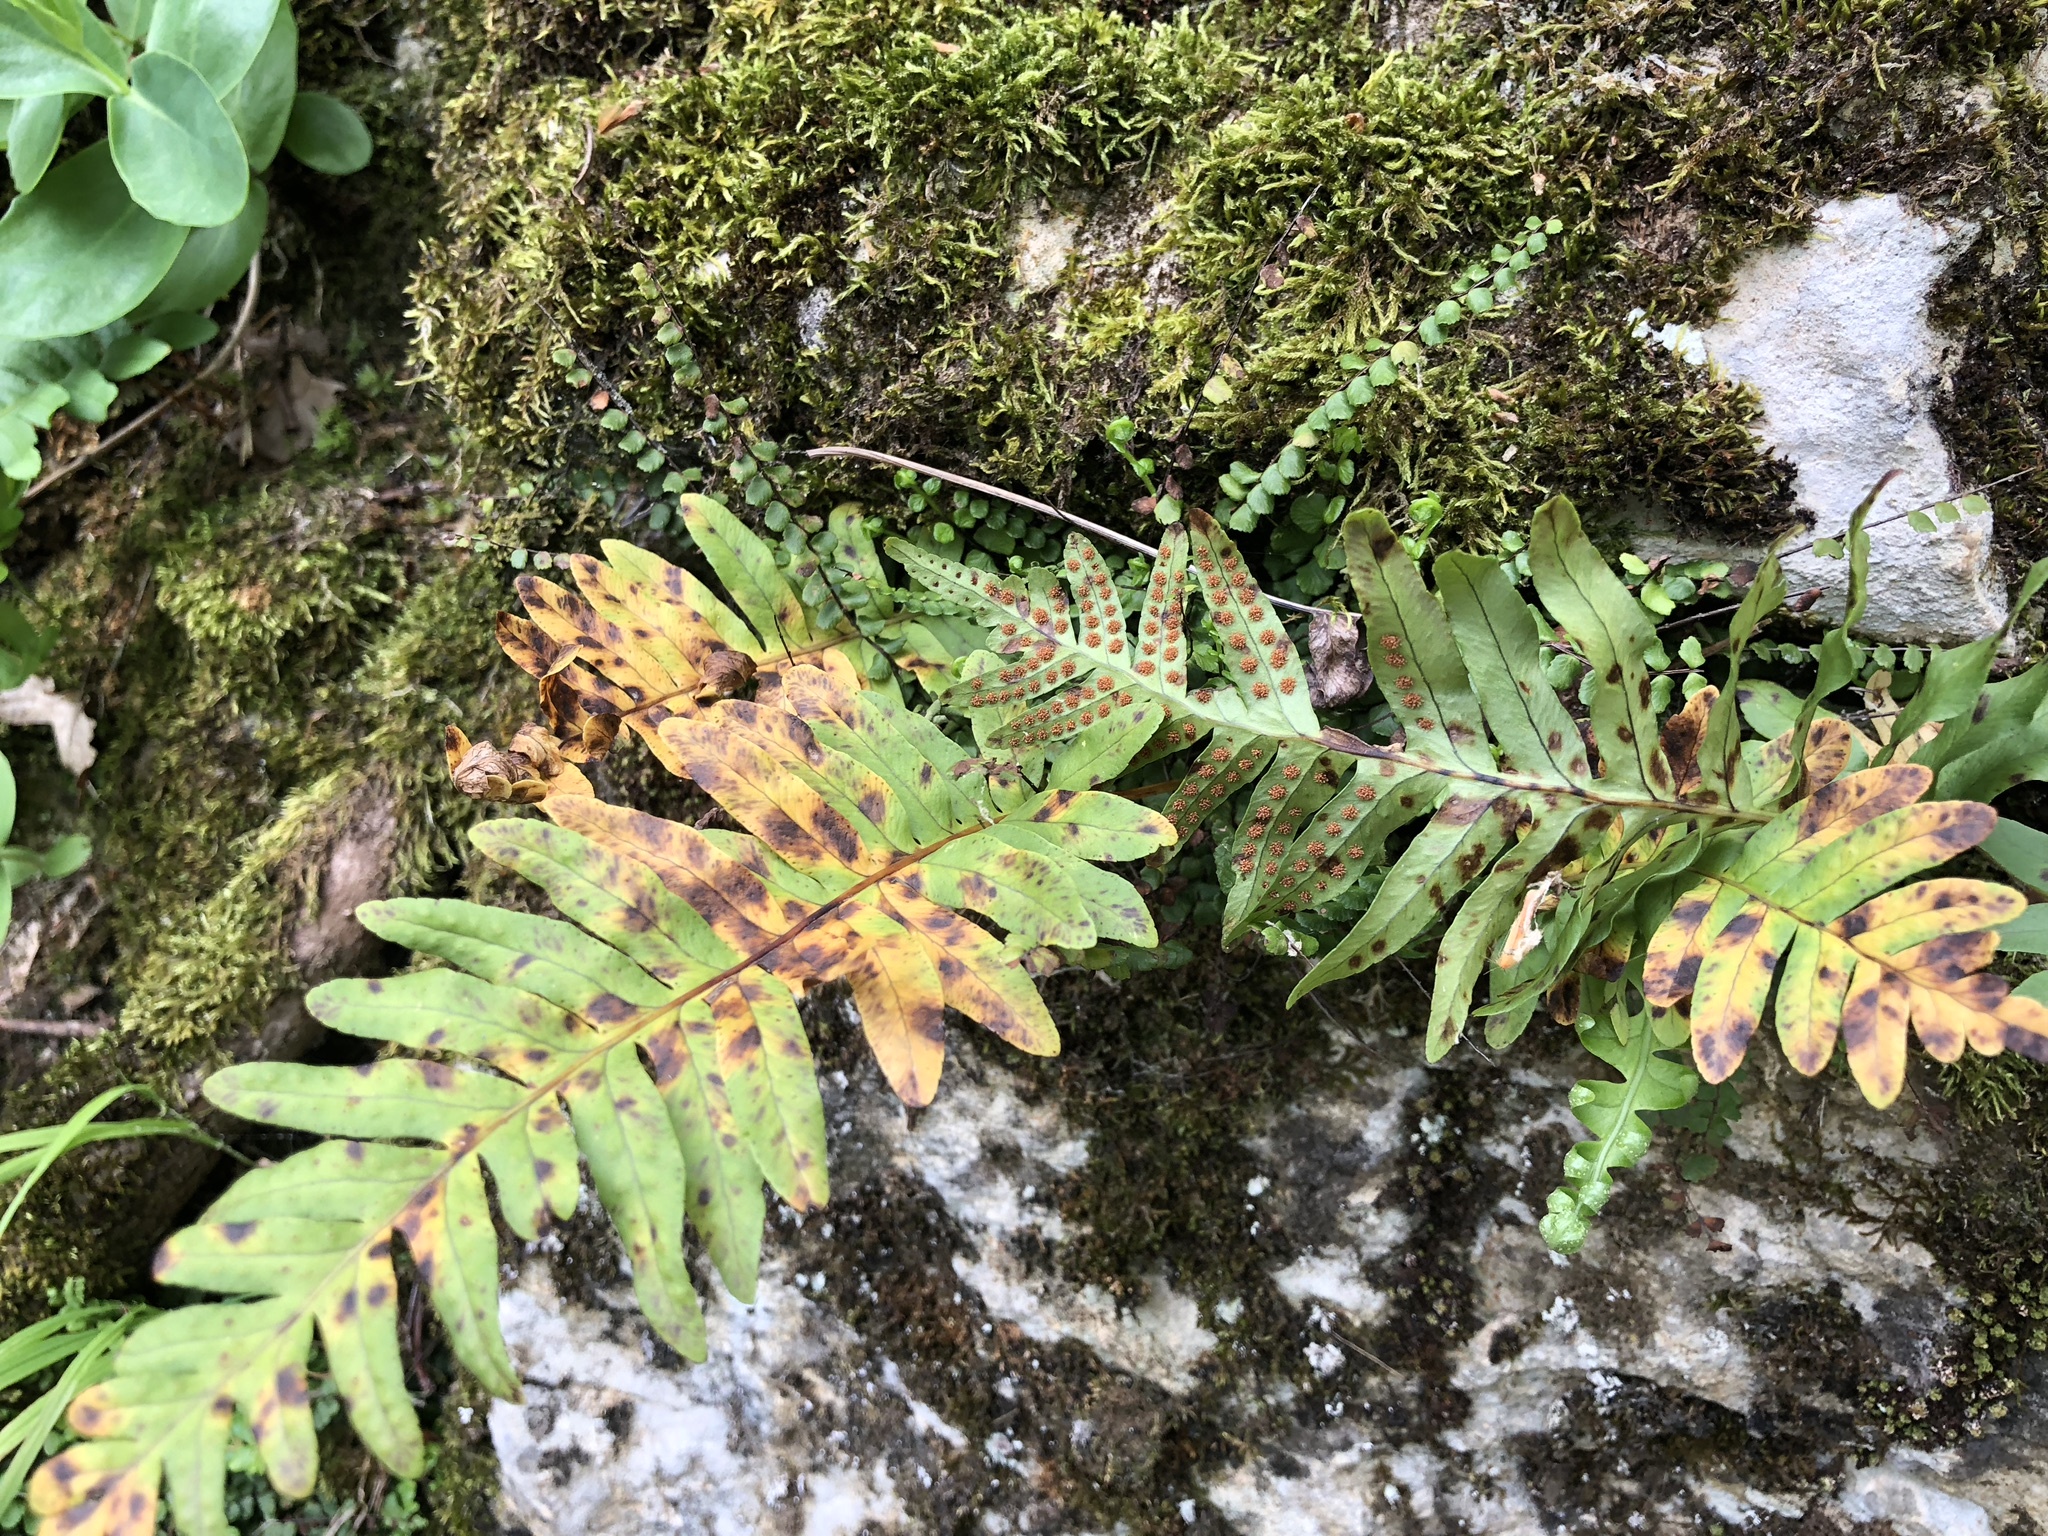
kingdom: Plantae
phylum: Tracheophyta
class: Polypodiopsida
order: Polypodiales
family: Polypodiaceae
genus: Polypodium
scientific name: Polypodium vulgare
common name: Common polypody
